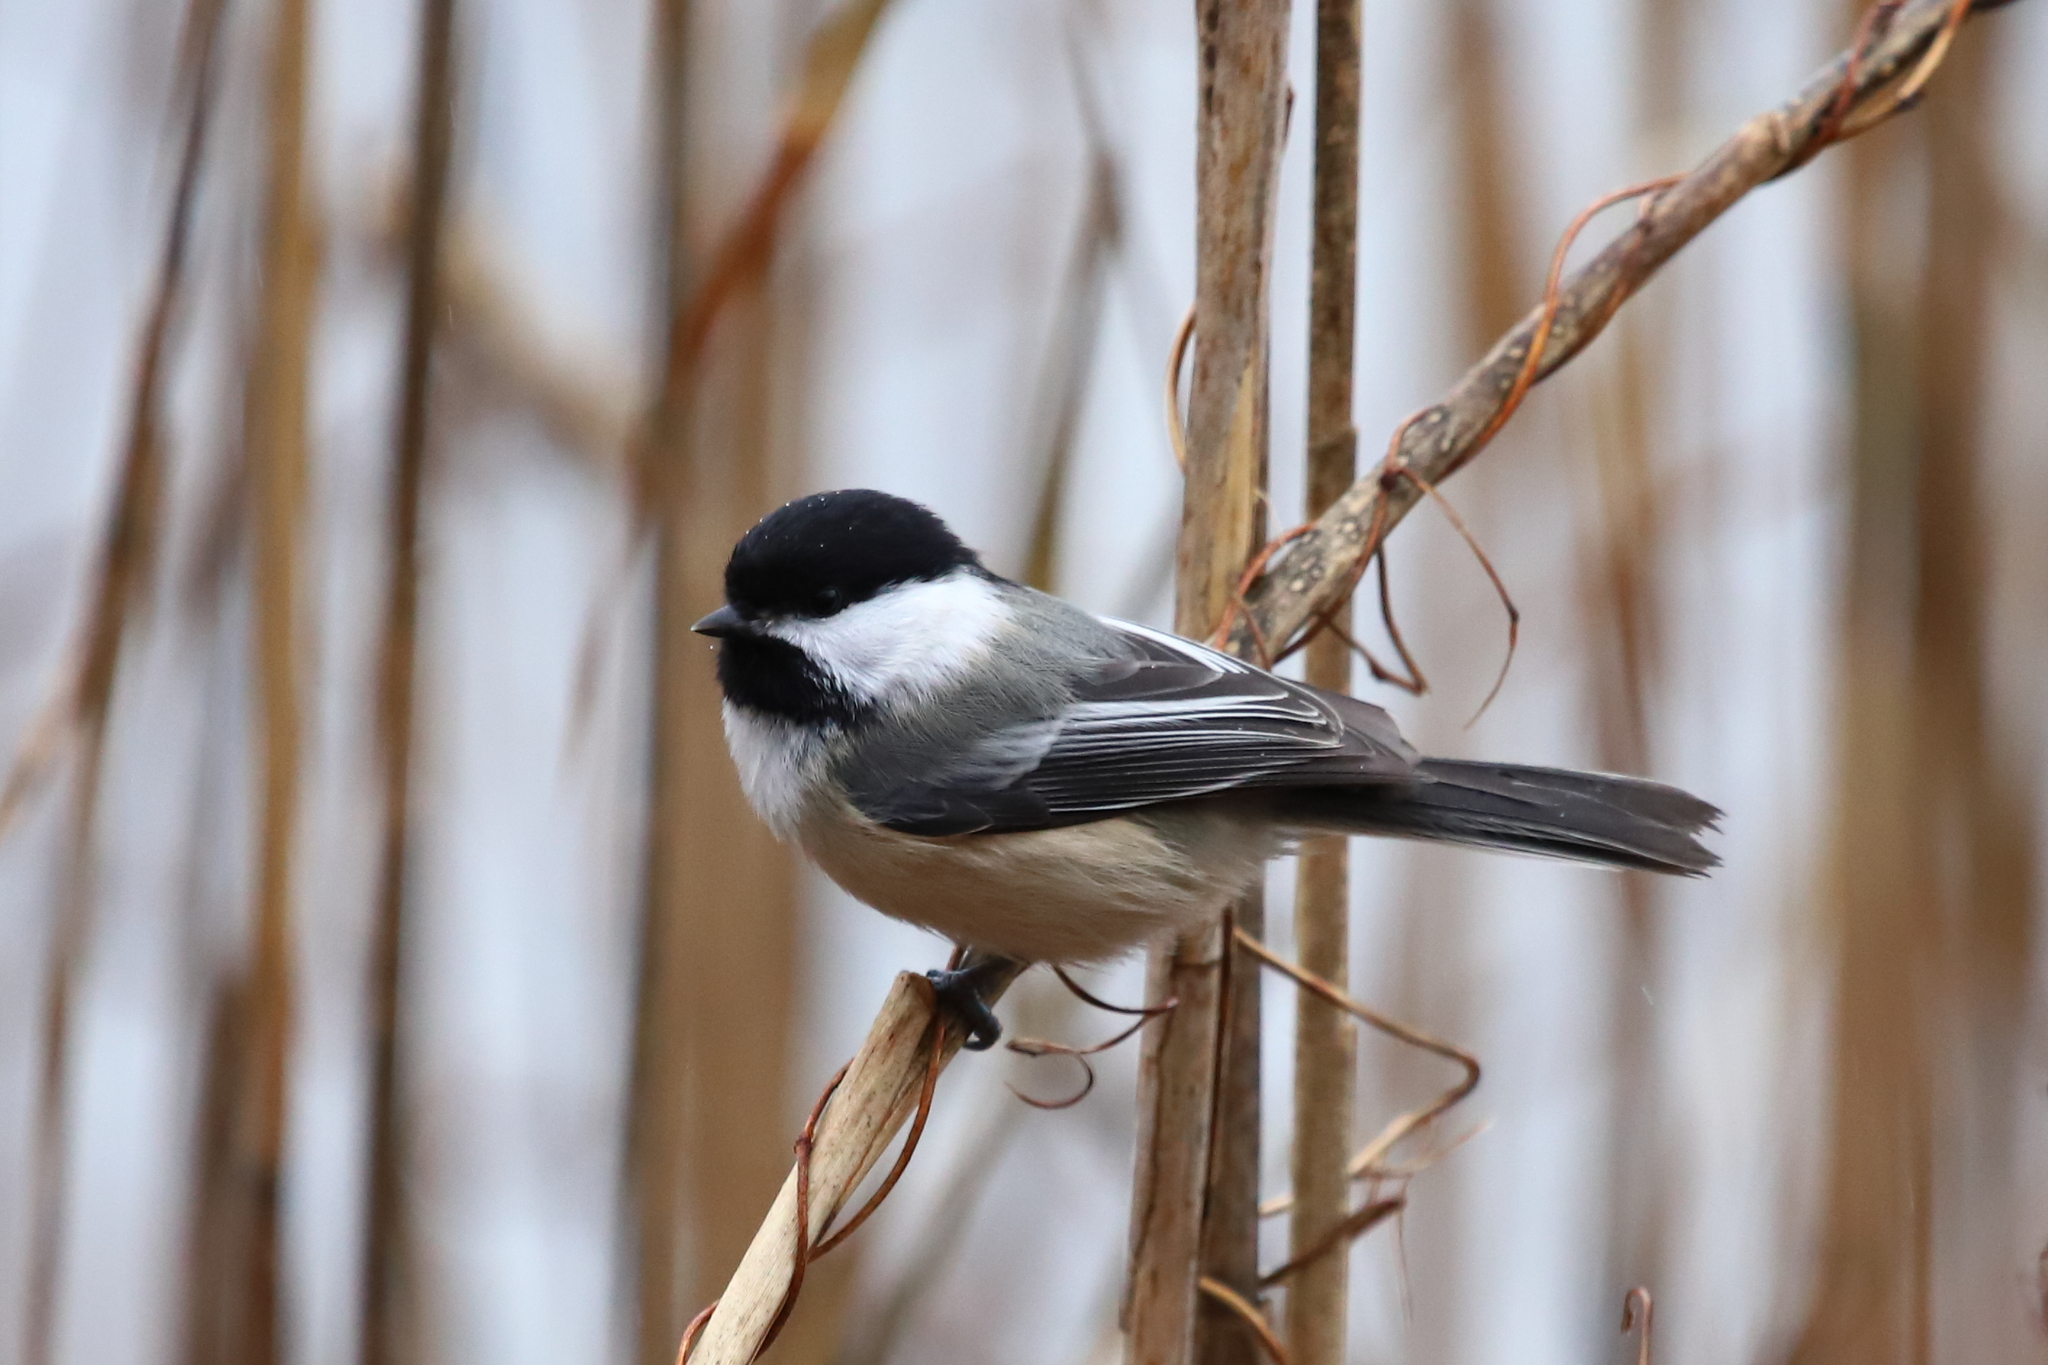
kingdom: Animalia
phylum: Chordata
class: Aves
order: Passeriformes
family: Paridae
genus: Poecile
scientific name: Poecile atricapillus
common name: Black-capped chickadee
